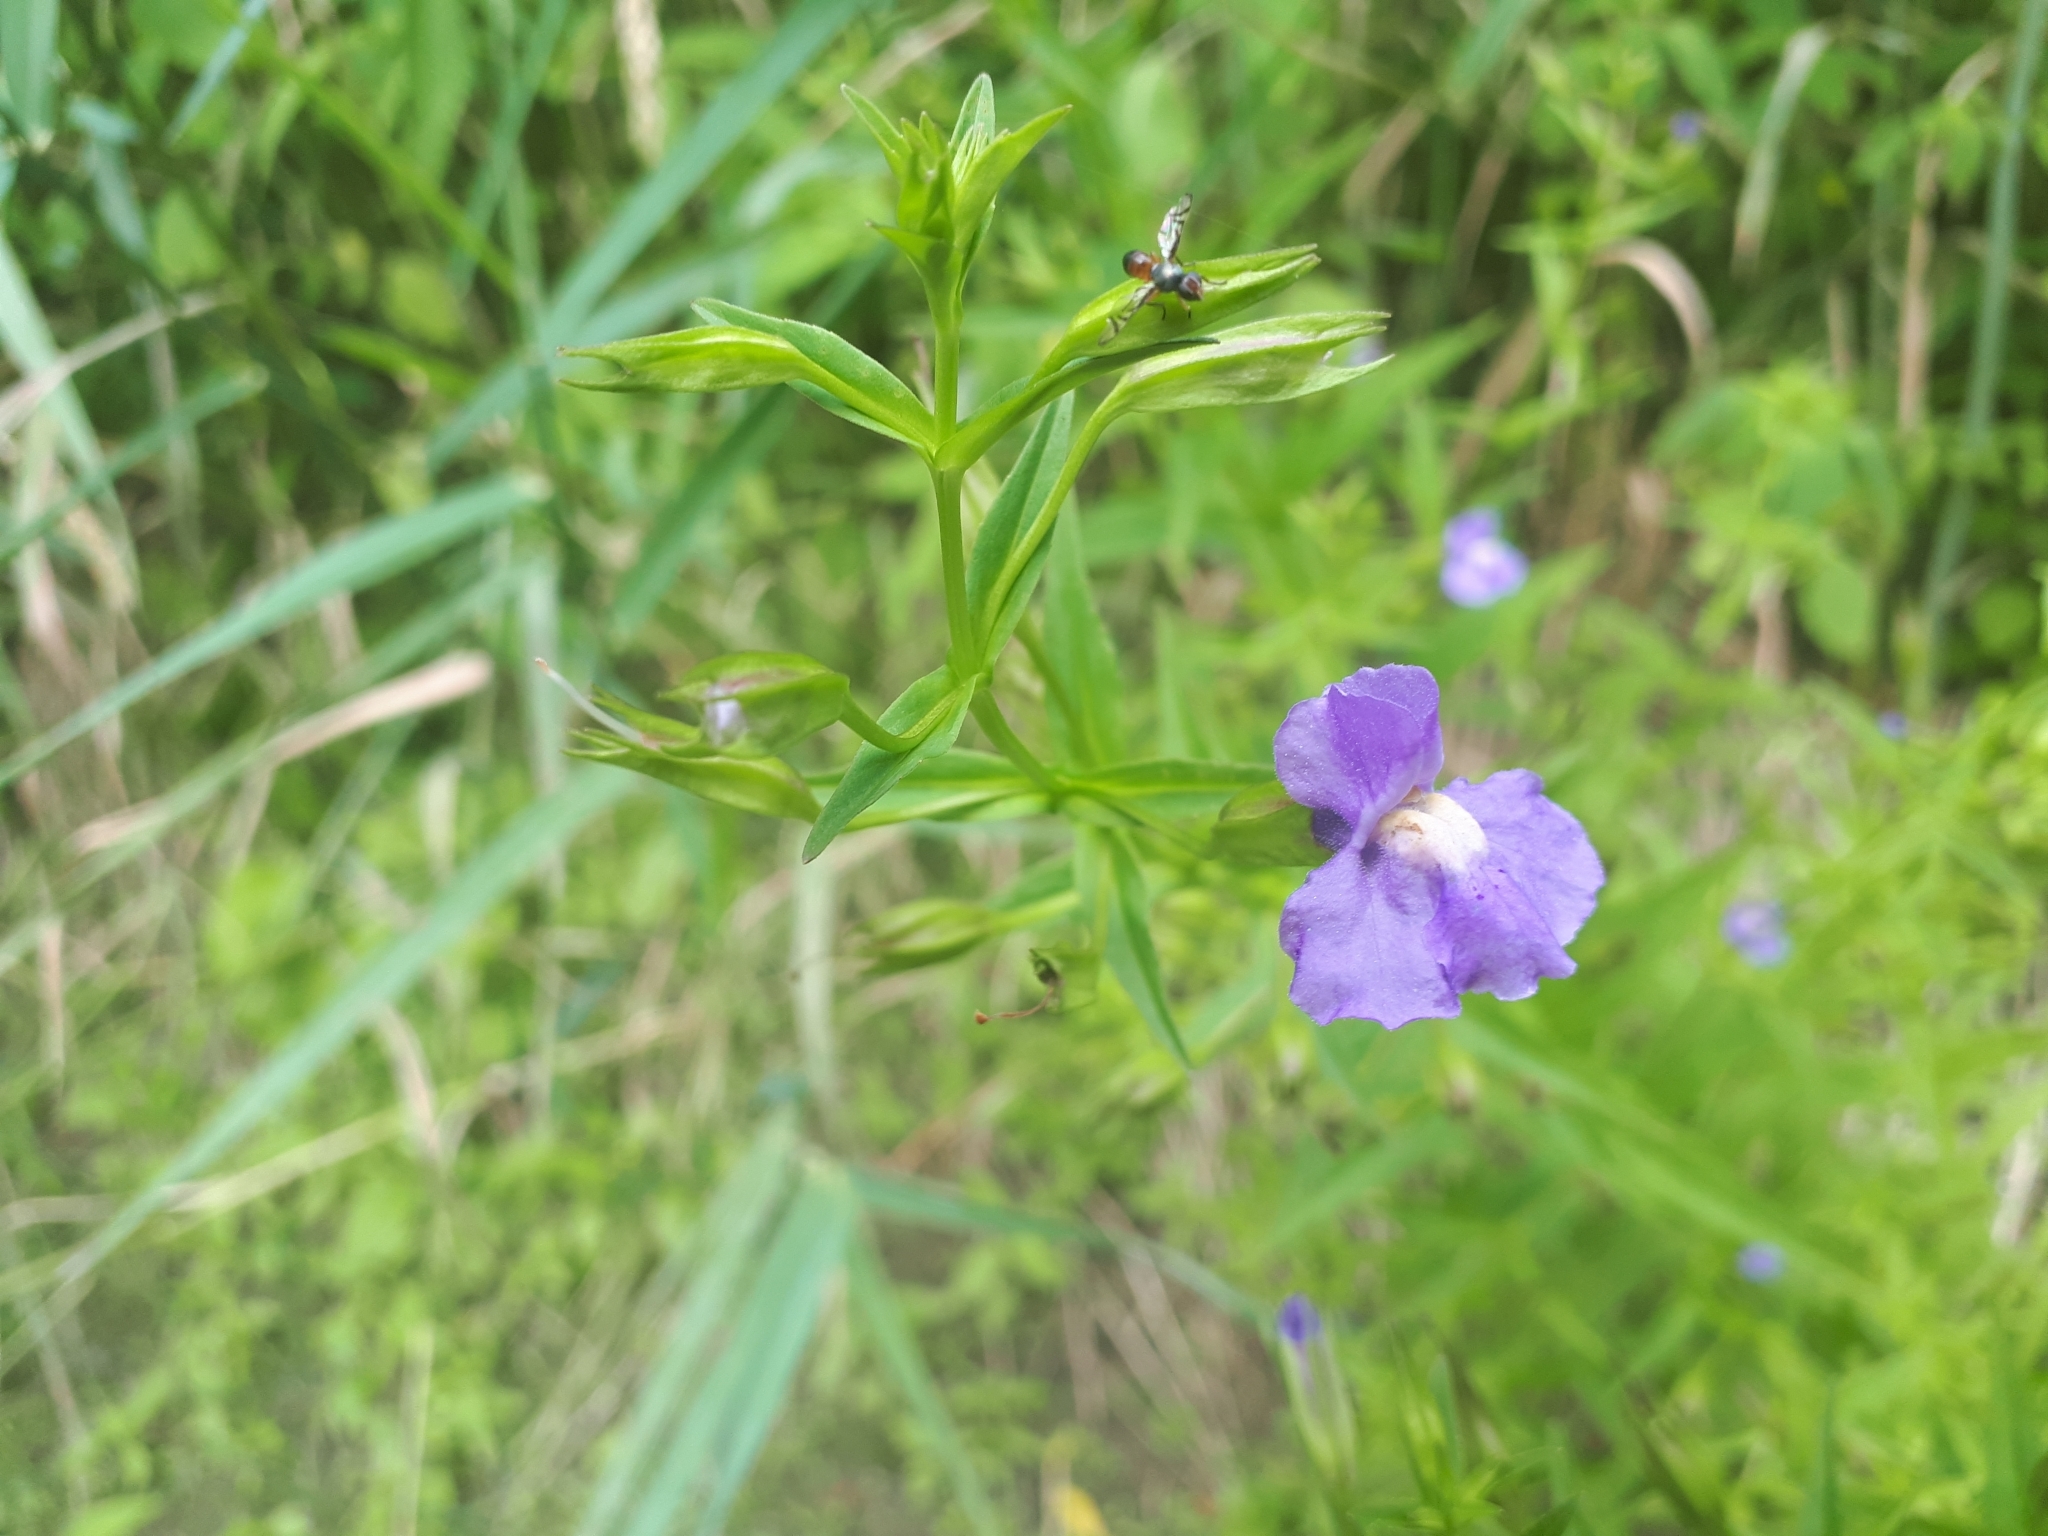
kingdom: Plantae
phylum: Tracheophyta
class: Magnoliopsida
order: Lamiales
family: Phrymaceae
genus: Mimulus
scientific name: Mimulus ringens
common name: Allegheny monkeyflower
